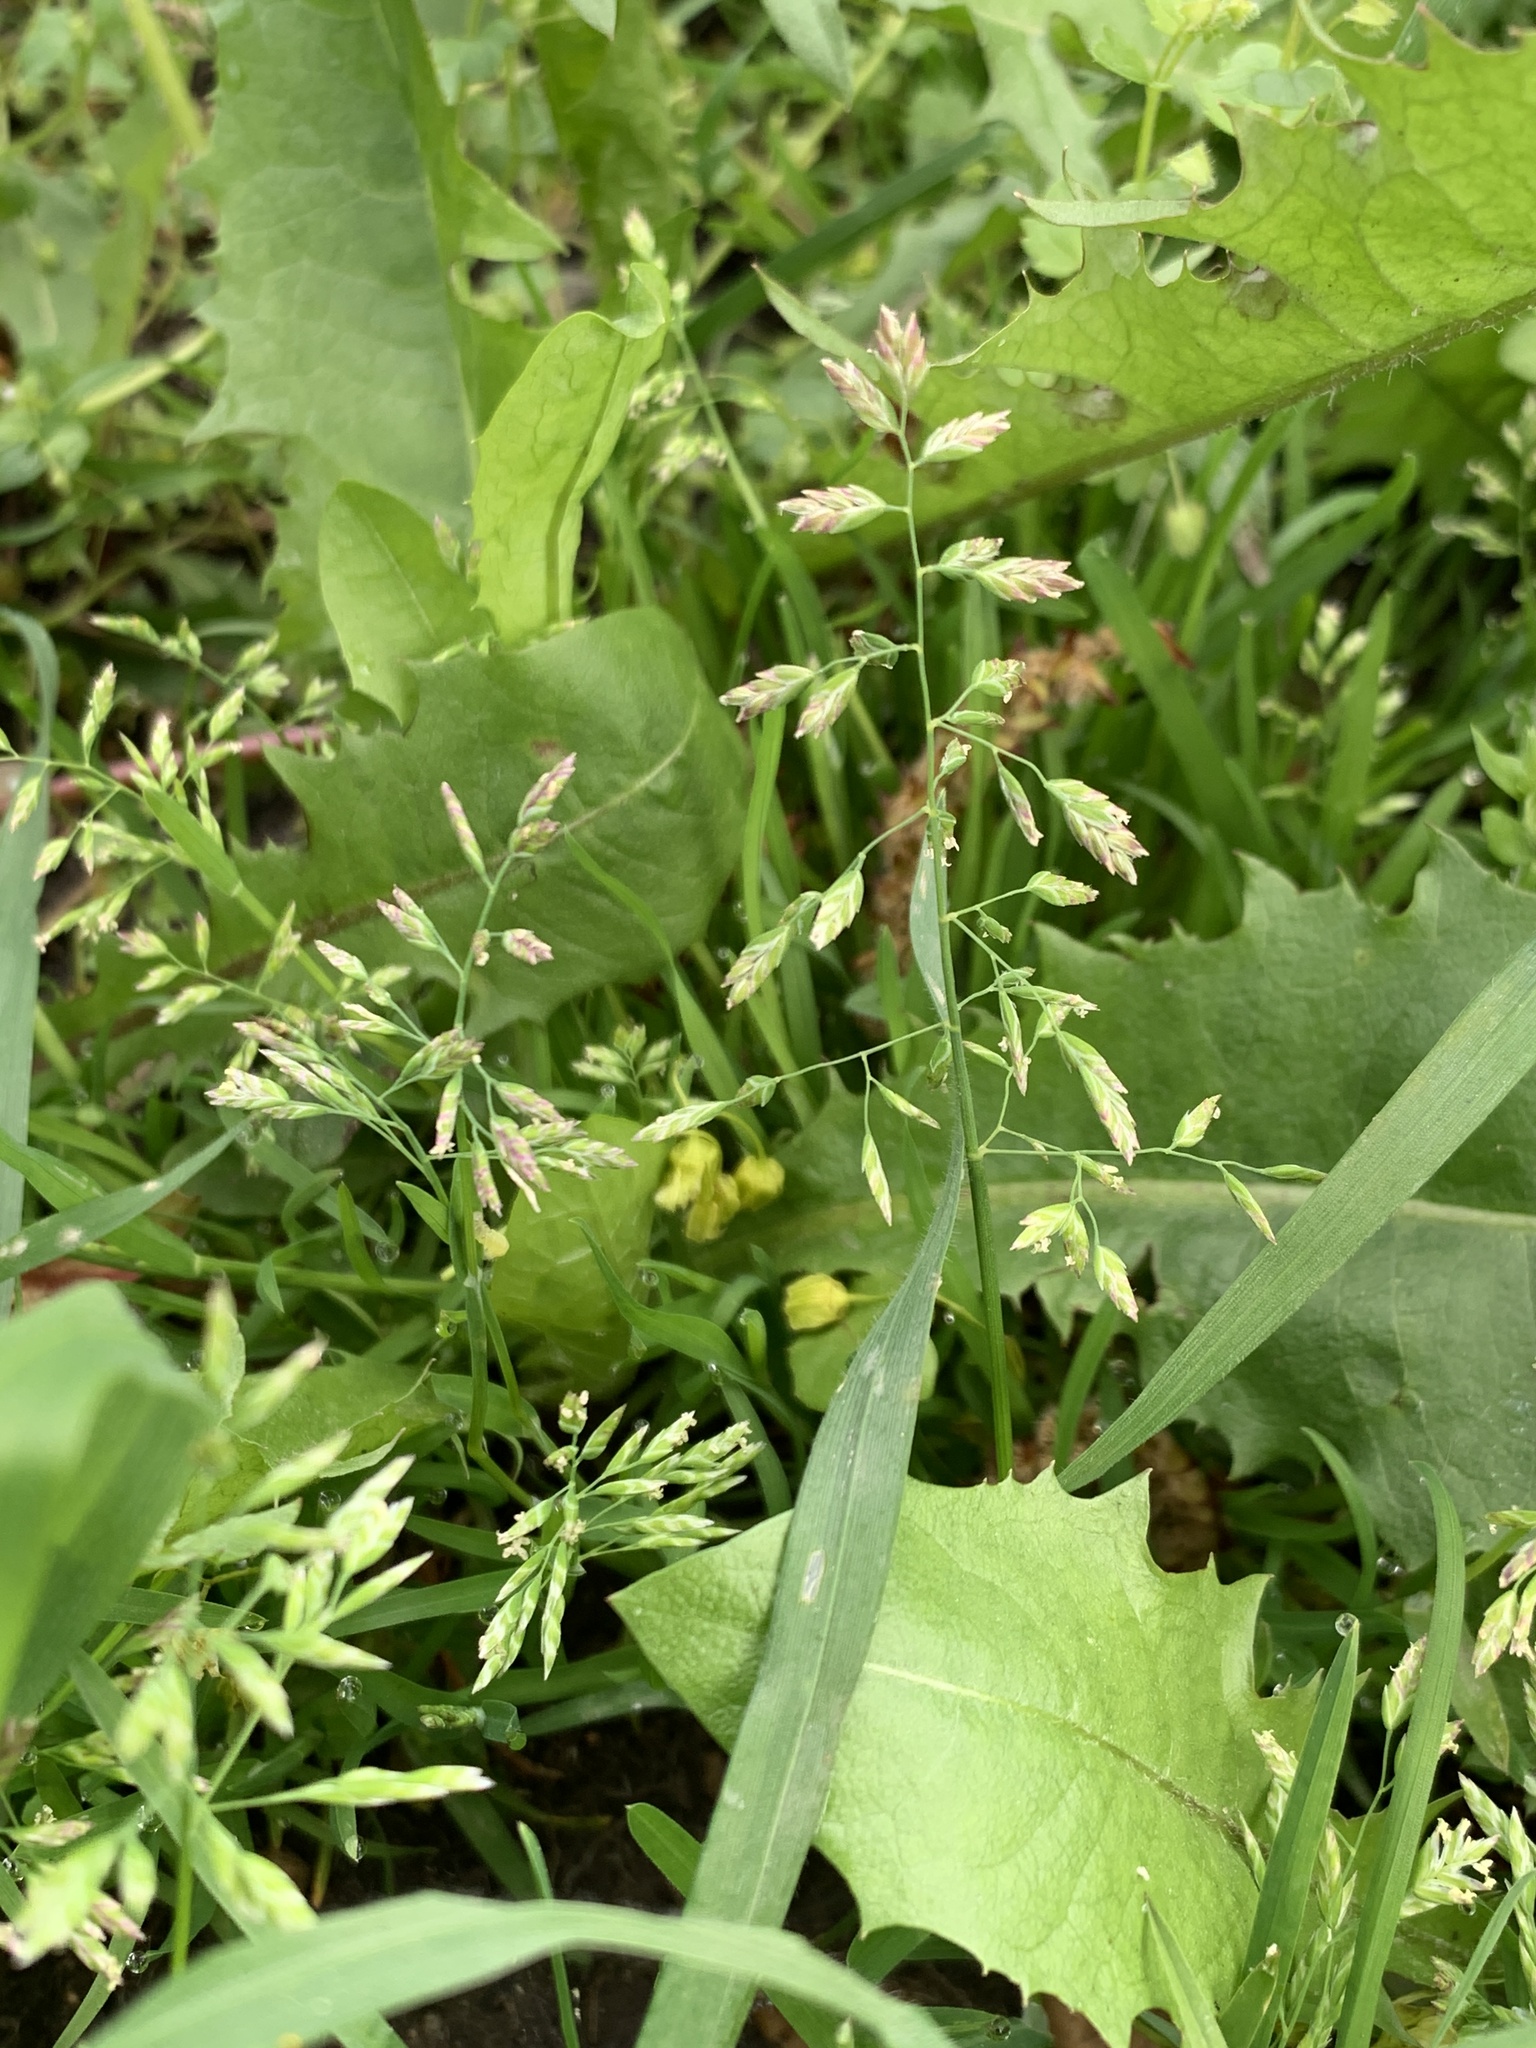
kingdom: Plantae
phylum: Tracheophyta
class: Liliopsida
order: Poales
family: Poaceae
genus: Poa
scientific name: Poa annua
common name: Annual bluegrass
